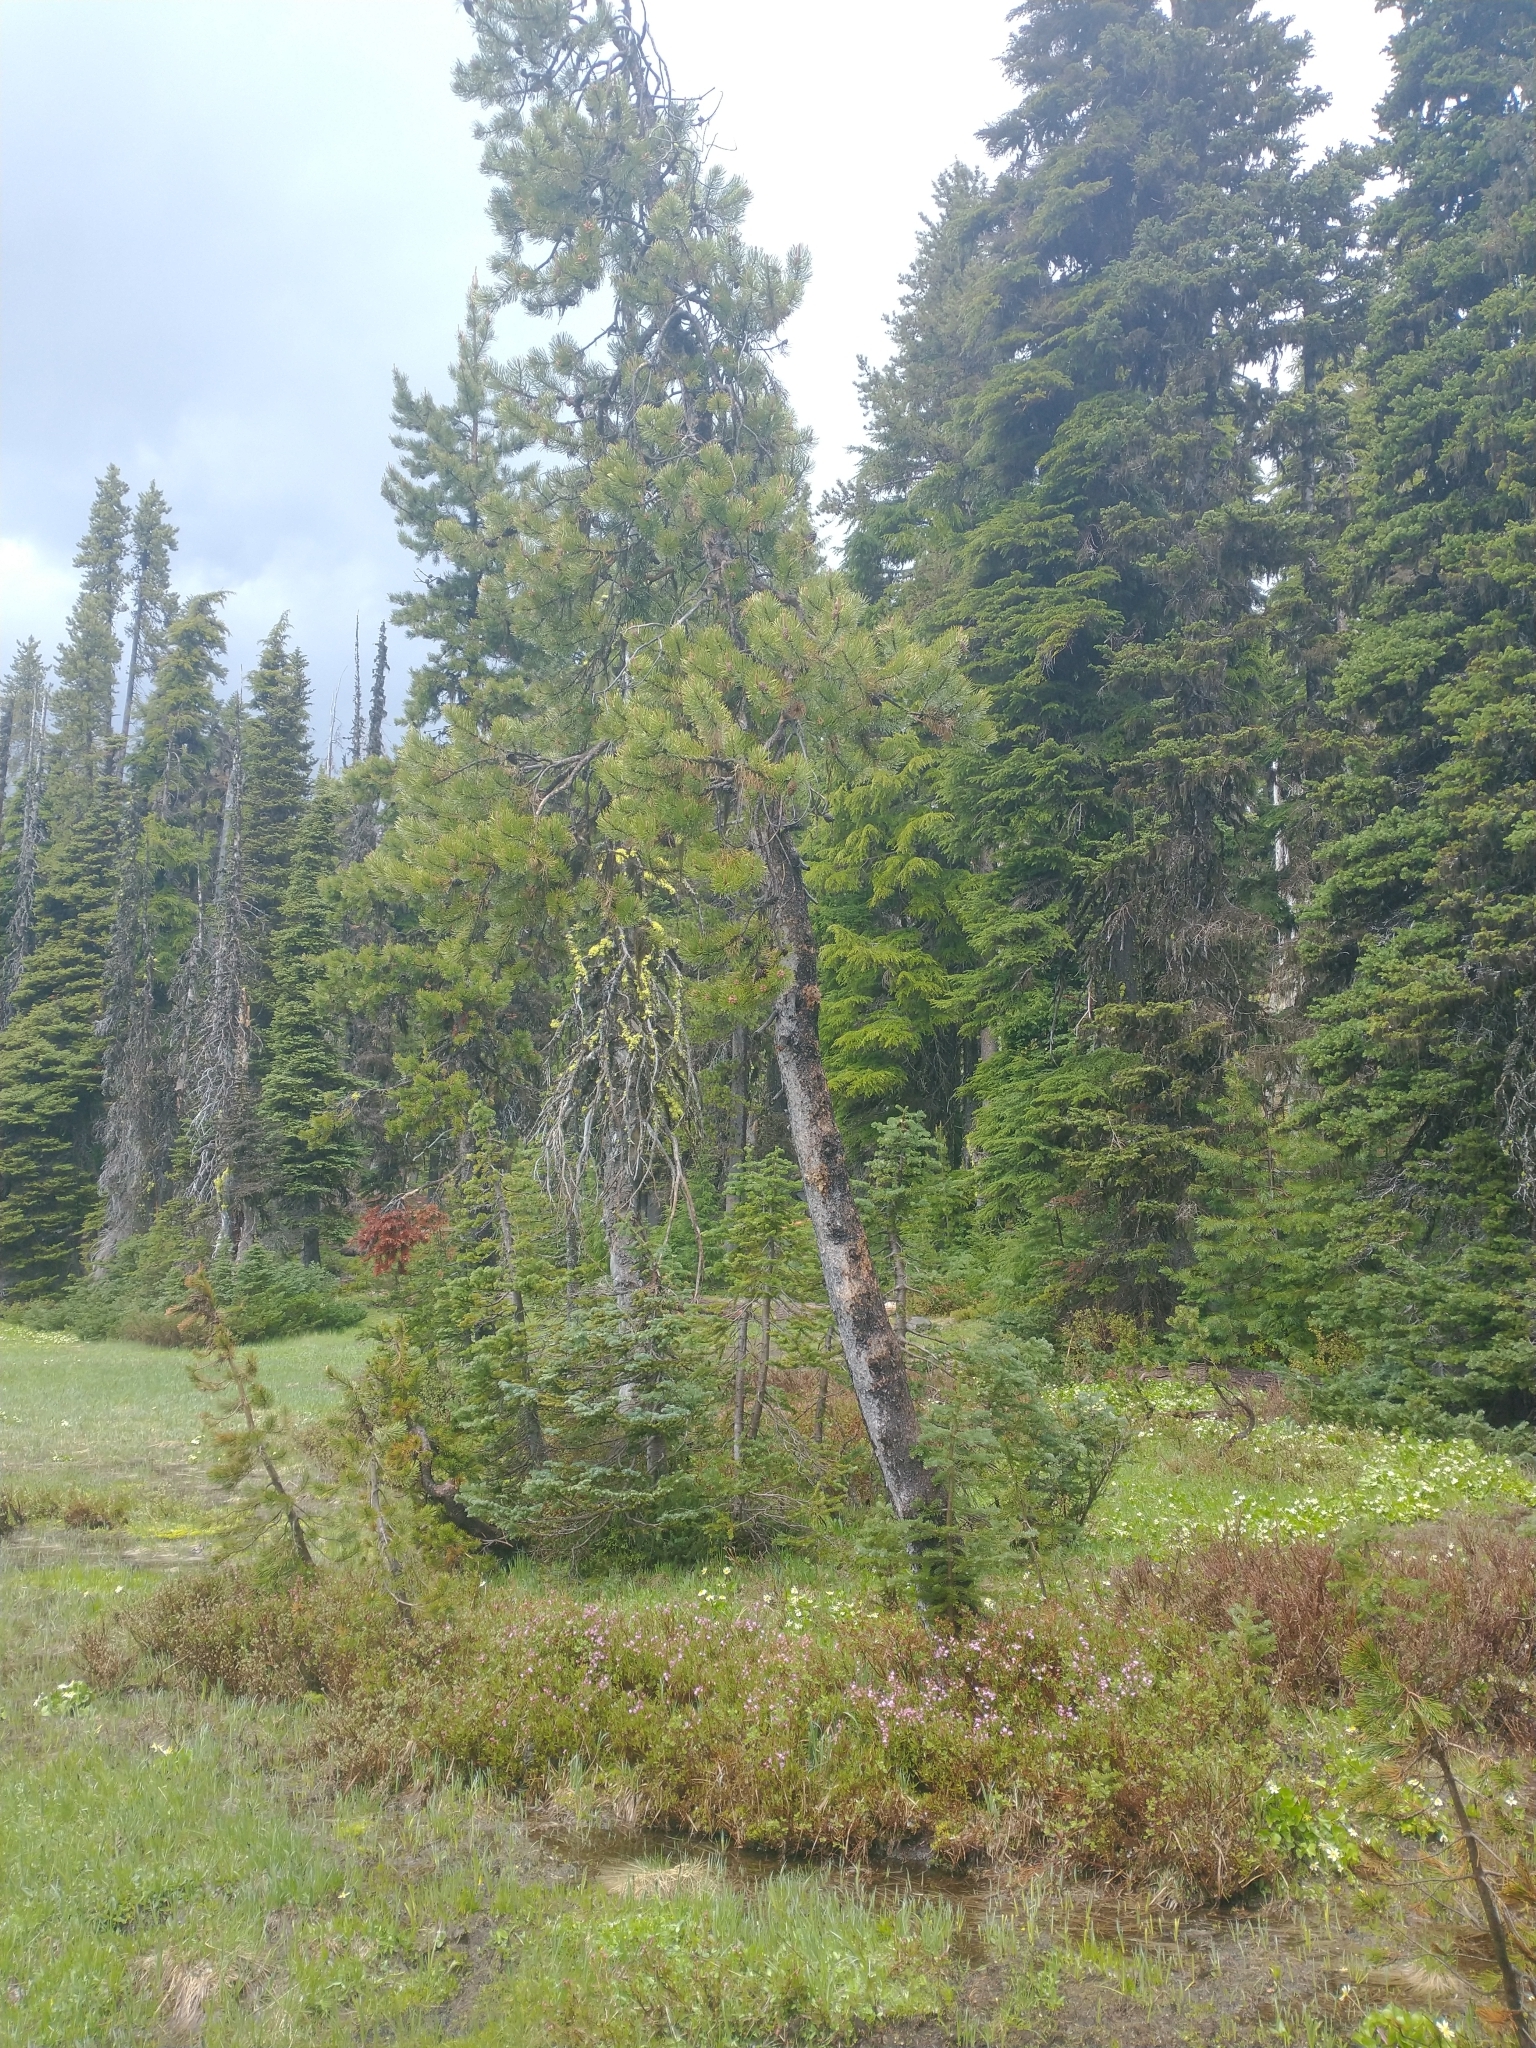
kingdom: Plantae
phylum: Tracheophyta
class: Magnoliopsida
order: Ericales
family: Ericaceae
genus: Kalmia
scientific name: Kalmia microphylla
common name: Alpine bog laurel
